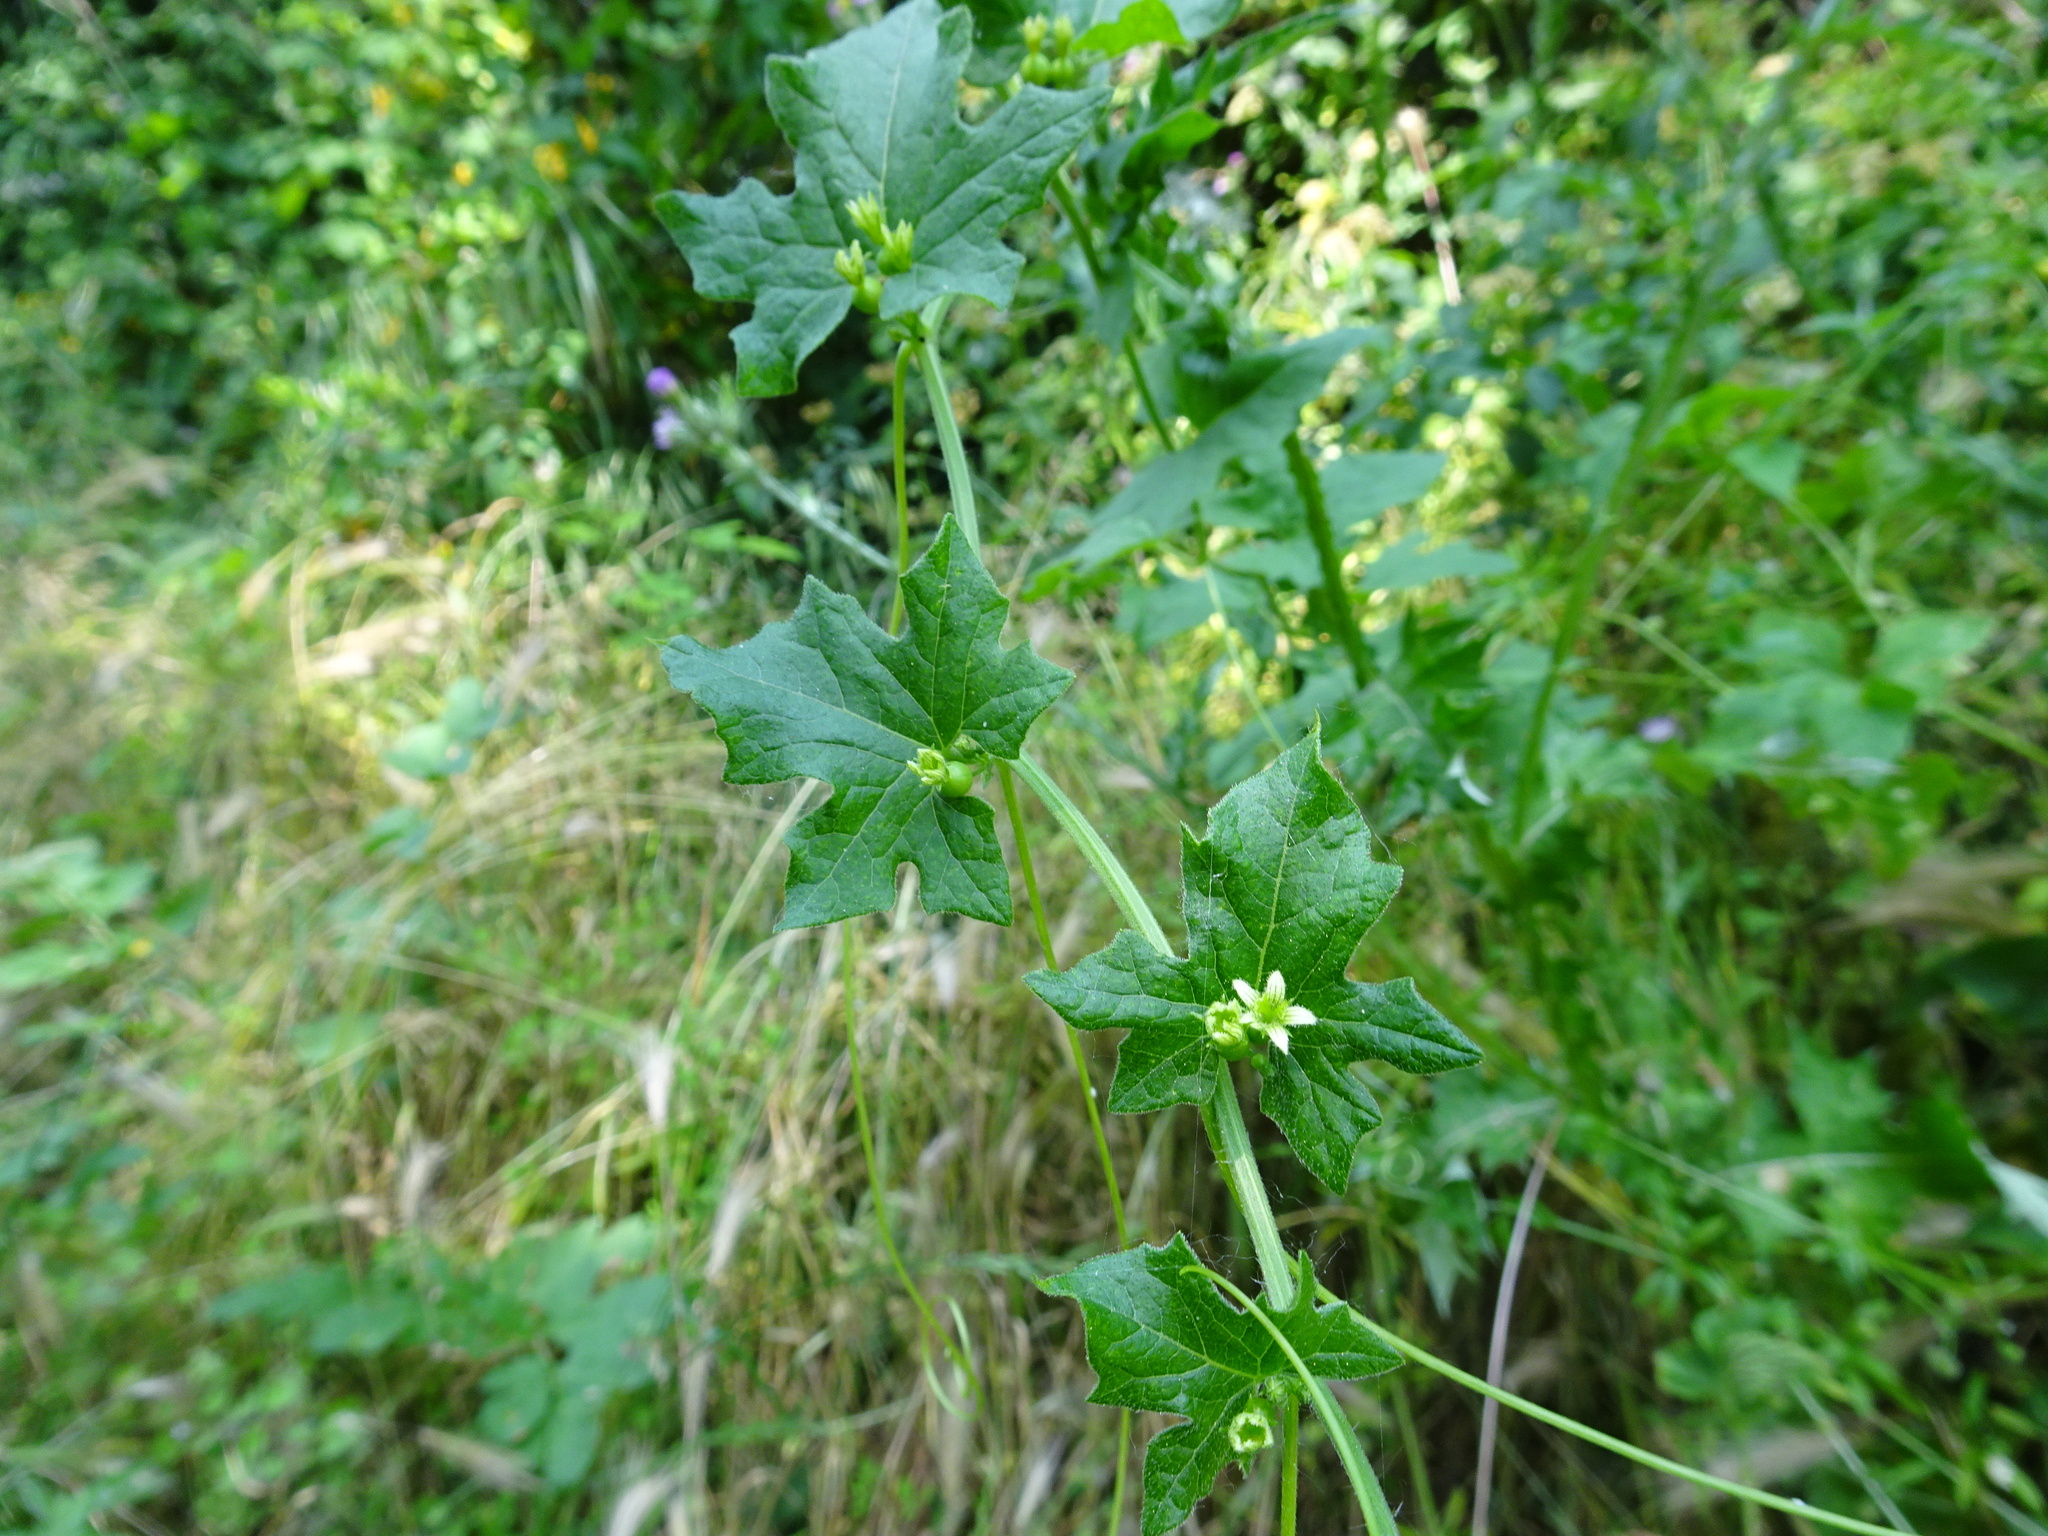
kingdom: Plantae
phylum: Tracheophyta
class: Magnoliopsida
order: Cucurbitales
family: Cucurbitaceae
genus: Bryonia
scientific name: Bryonia cretica
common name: Cretan bryony
